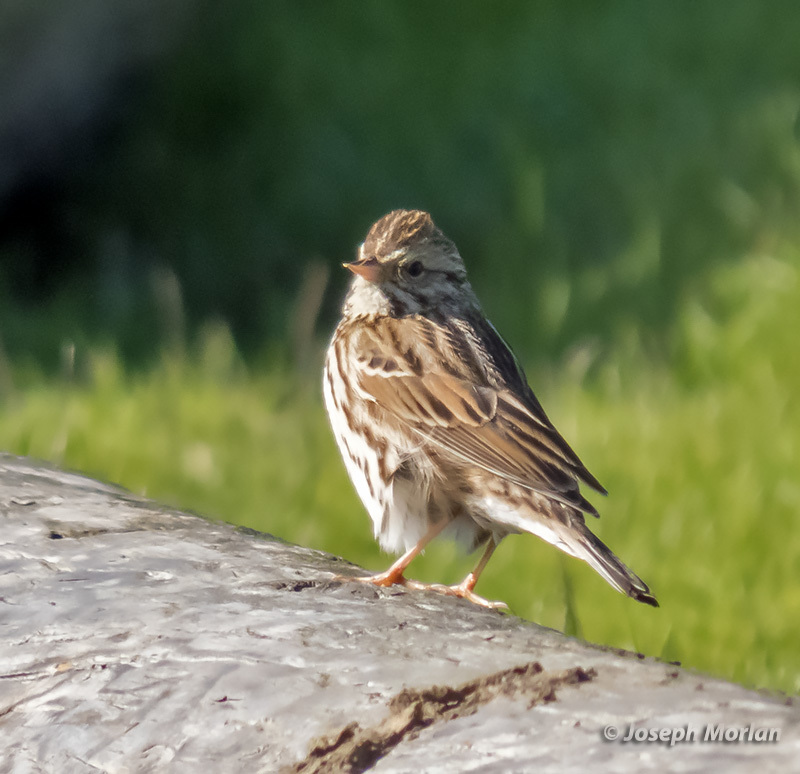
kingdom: Animalia
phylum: Chordata
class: Aves
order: Passeriformes
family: Passerellidae
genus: Passerculus
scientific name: Passerculus sandwichensis
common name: Savannah sparrow
